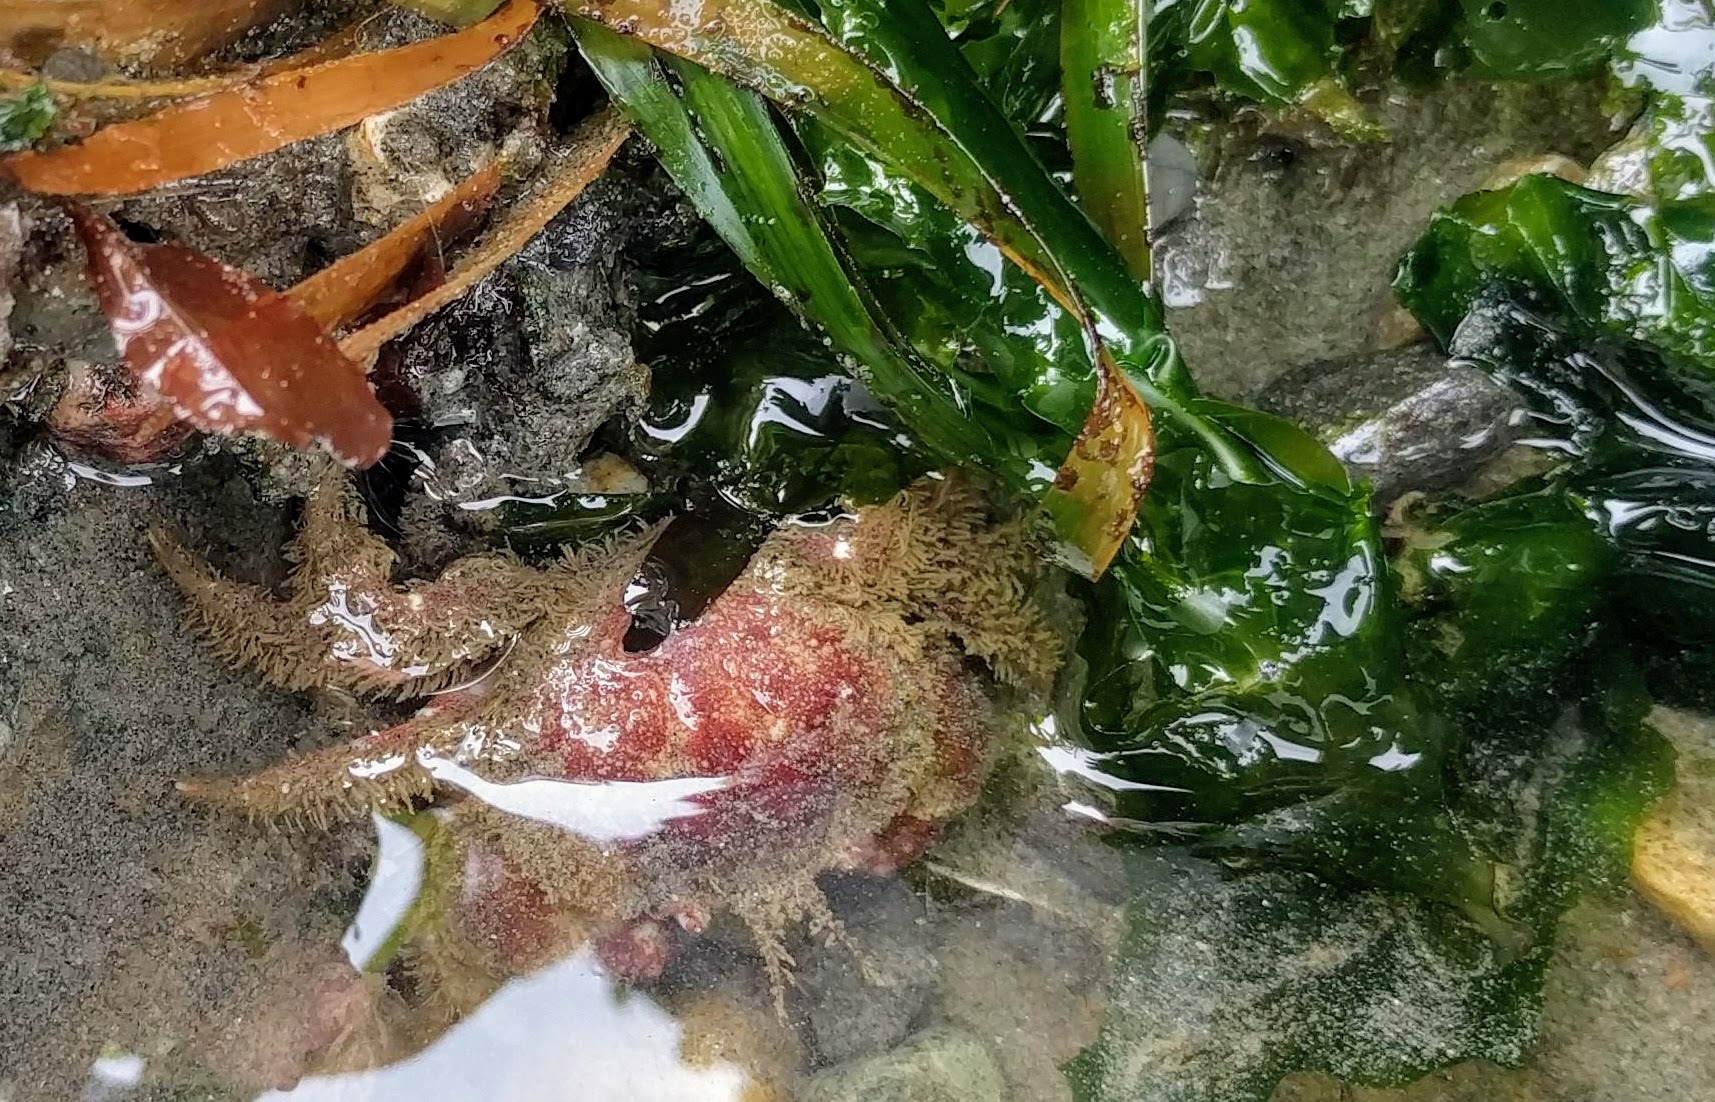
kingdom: Animalia
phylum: Arthropoda
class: Malacostraca
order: Decapoda
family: Cancridae
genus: Glebocarcinus
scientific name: Glebocarcinus oregonensis
